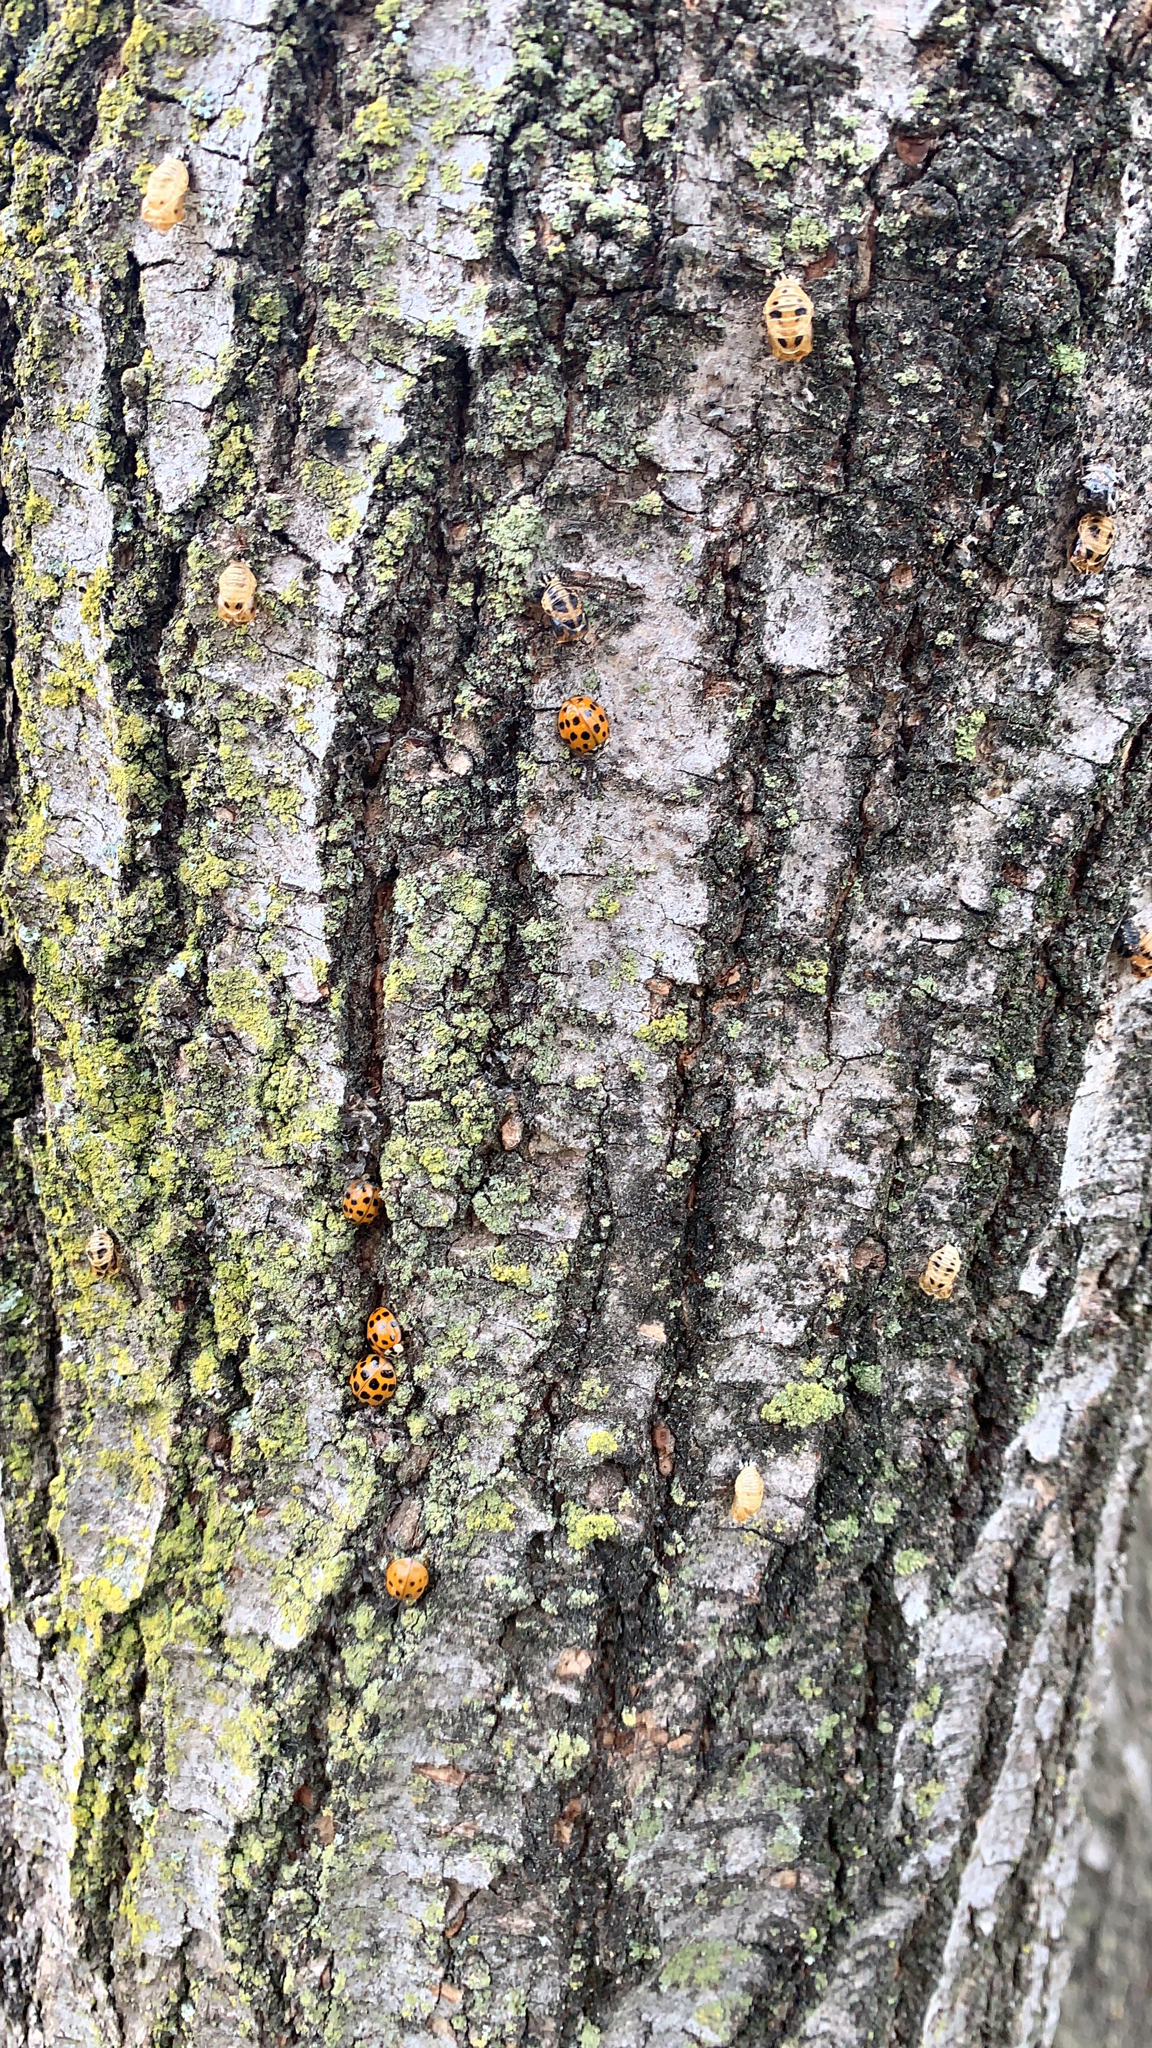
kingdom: Animalia
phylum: Arthropoda
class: Insecta
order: Coleoptera
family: Coccinellidae
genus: Harmonia
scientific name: Harmonia axyridis
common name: Harlequin ladybird
